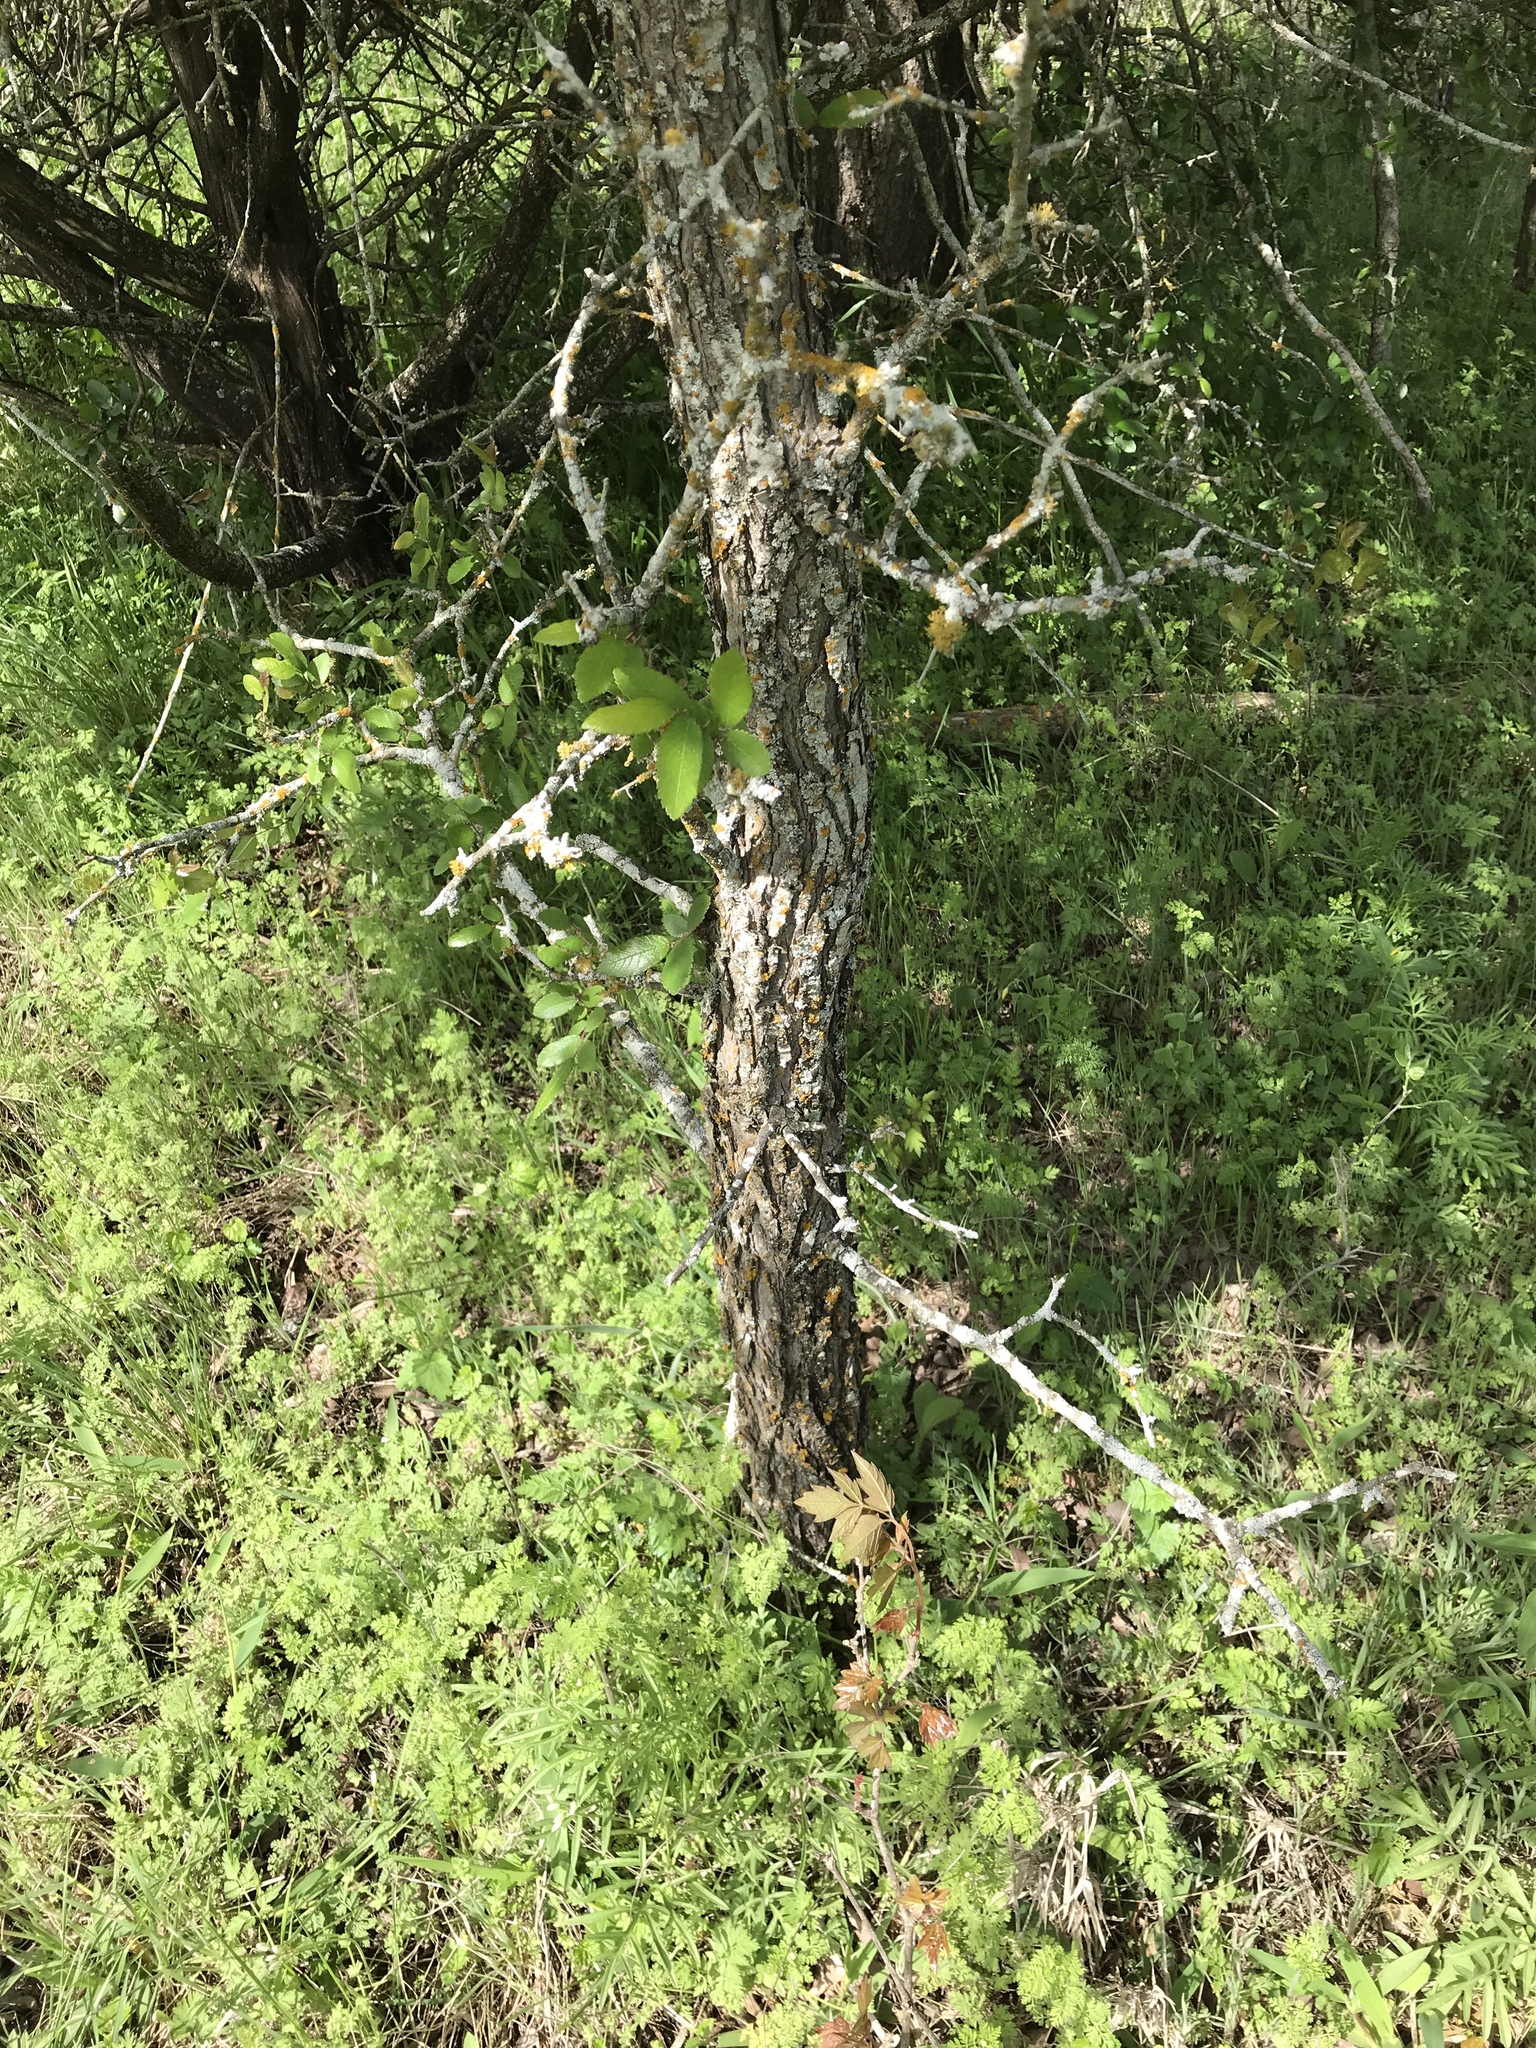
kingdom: Plantae
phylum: Tracheophyta
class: Magnoliopsida
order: Rosales
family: Ulmaceae
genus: Ulmus
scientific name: Ulmus crassifolia
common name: Basket elm
